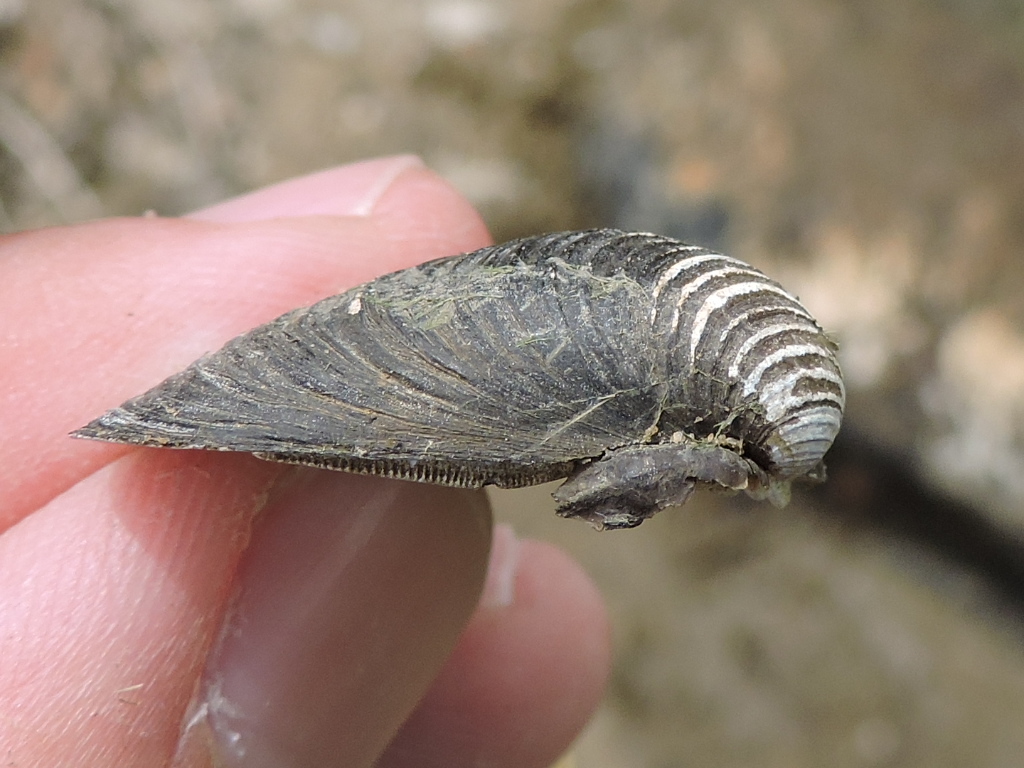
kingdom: Animalia
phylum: Mollusca
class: Bivalvia
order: Venerida
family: Cyrenidae
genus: Corbicula
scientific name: Corbicula fluminea
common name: Asian clam
